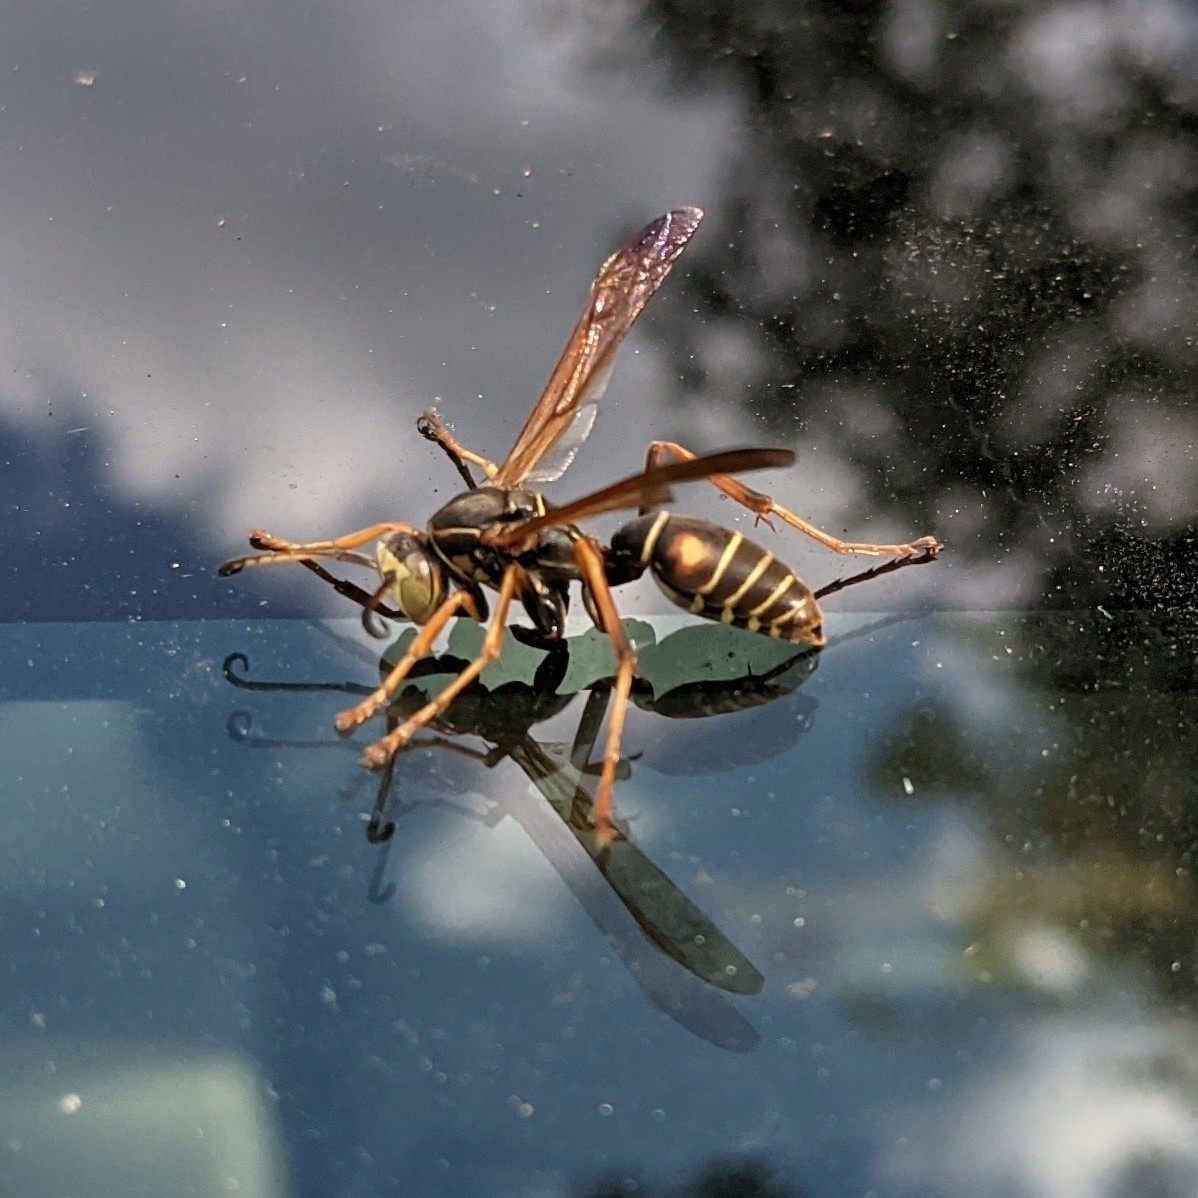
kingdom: Animalia
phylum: Arthropoda
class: Insecta
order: Hymenoptera
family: Eumenidae
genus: Polistes
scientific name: Polistes fuscatus
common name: Dark paper wasp
